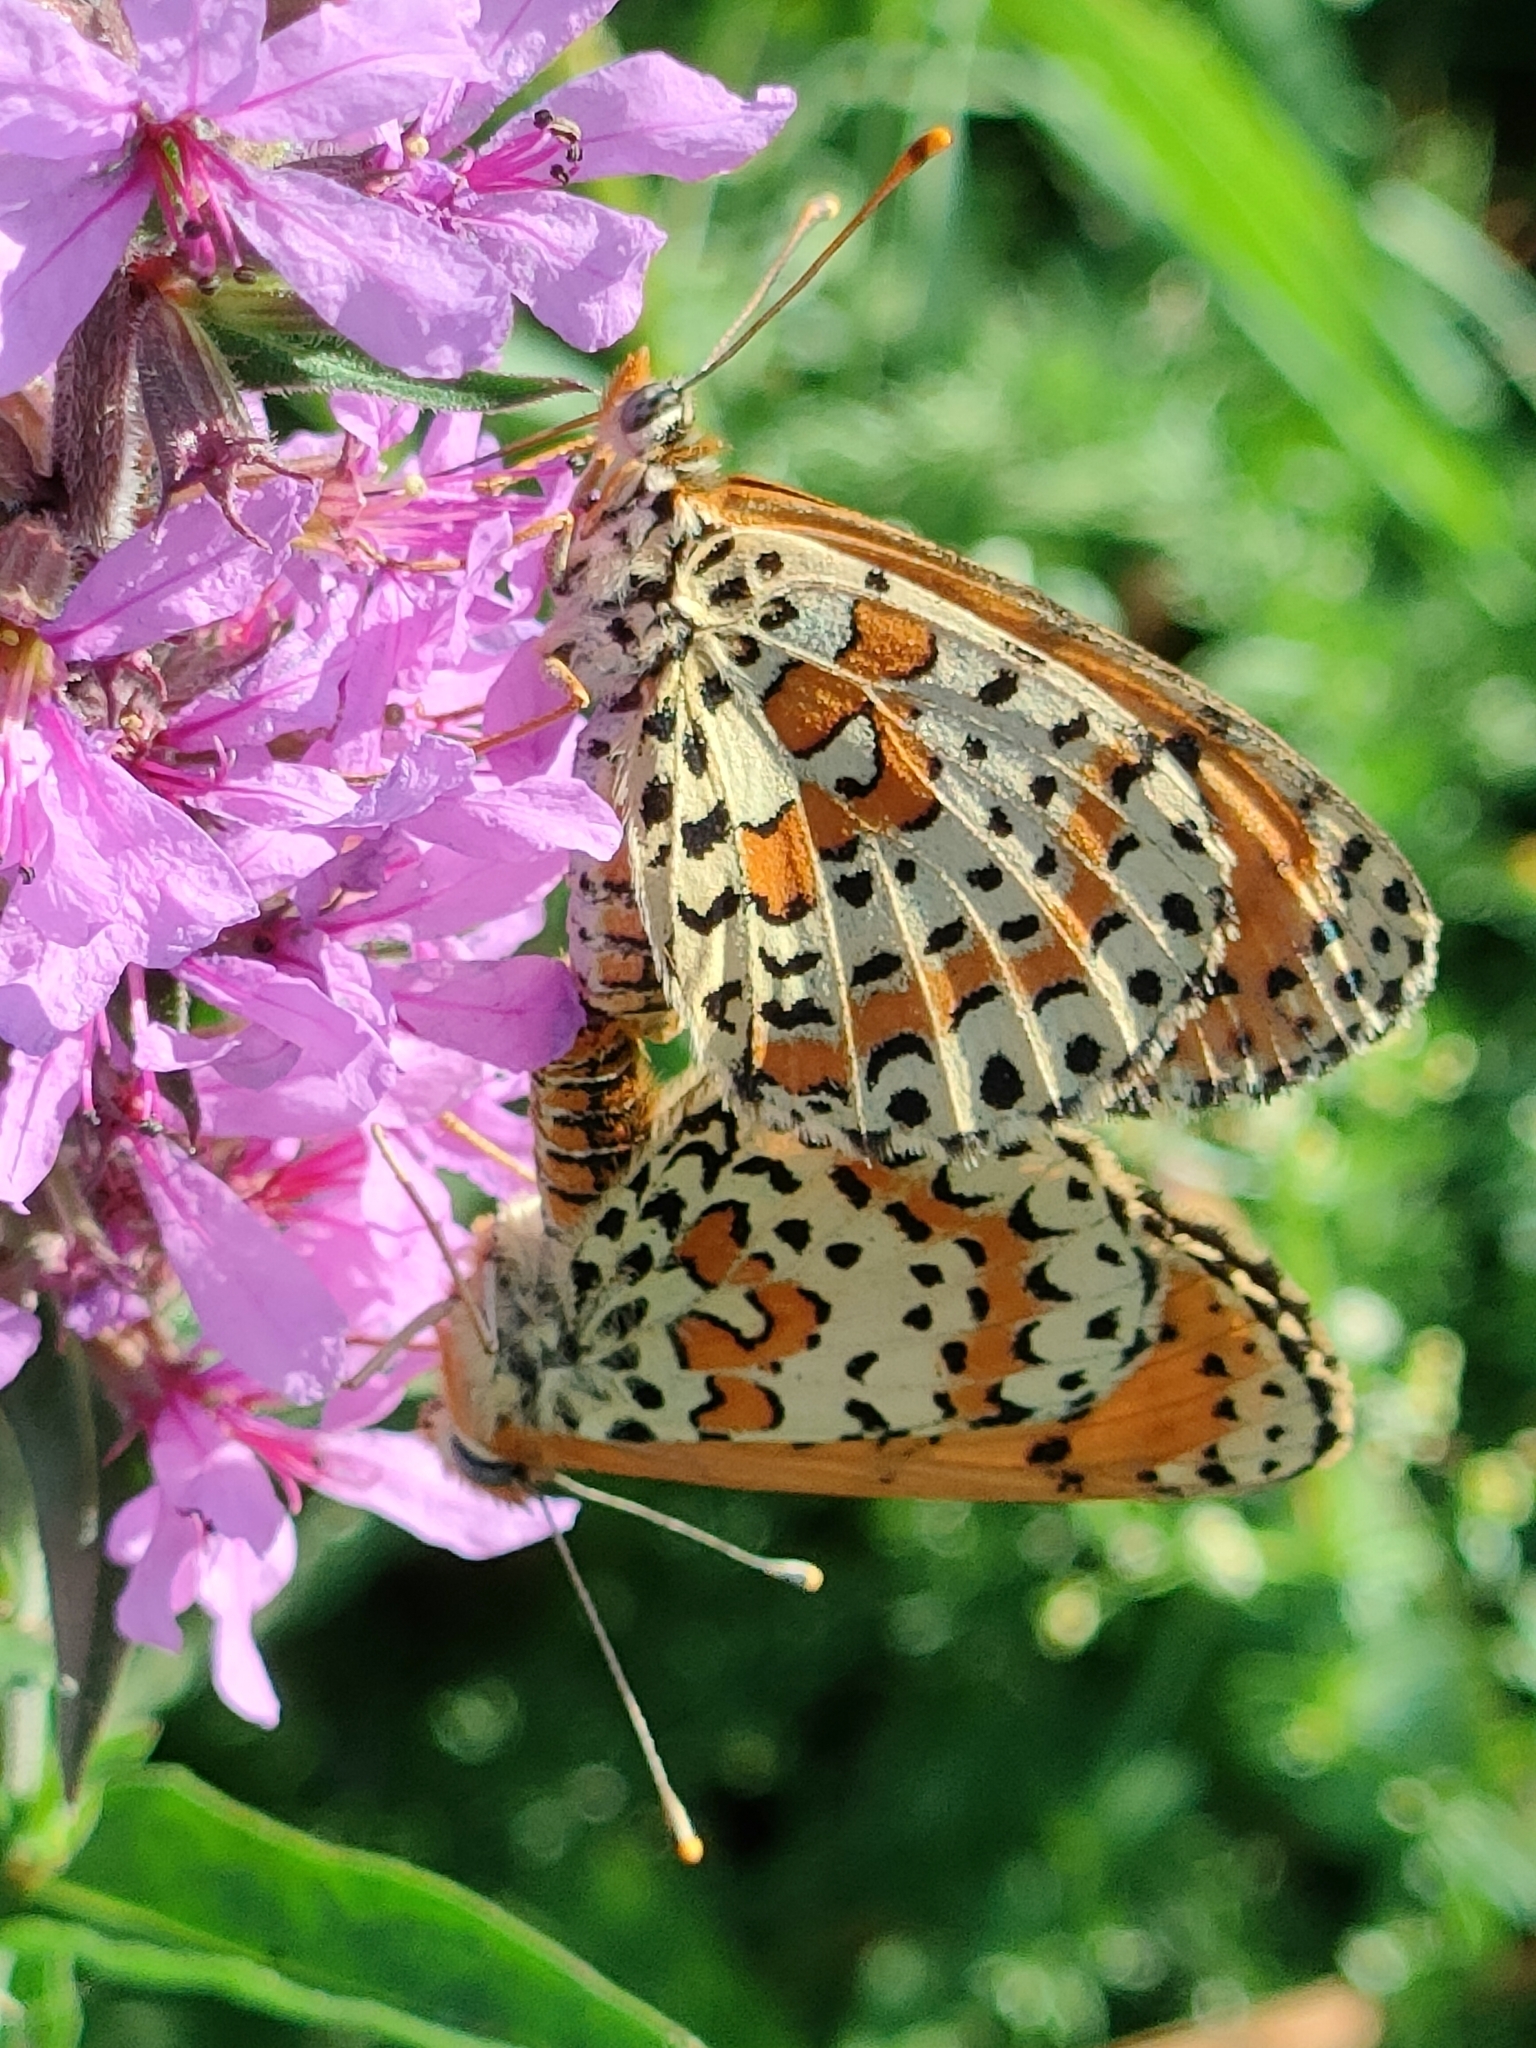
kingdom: Animalia
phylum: Arthropoda
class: Insecta
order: Lepidoptera
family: Nymphalidae
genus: Melitaea
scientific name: Melitaea didyma
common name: Spotted fritillary
